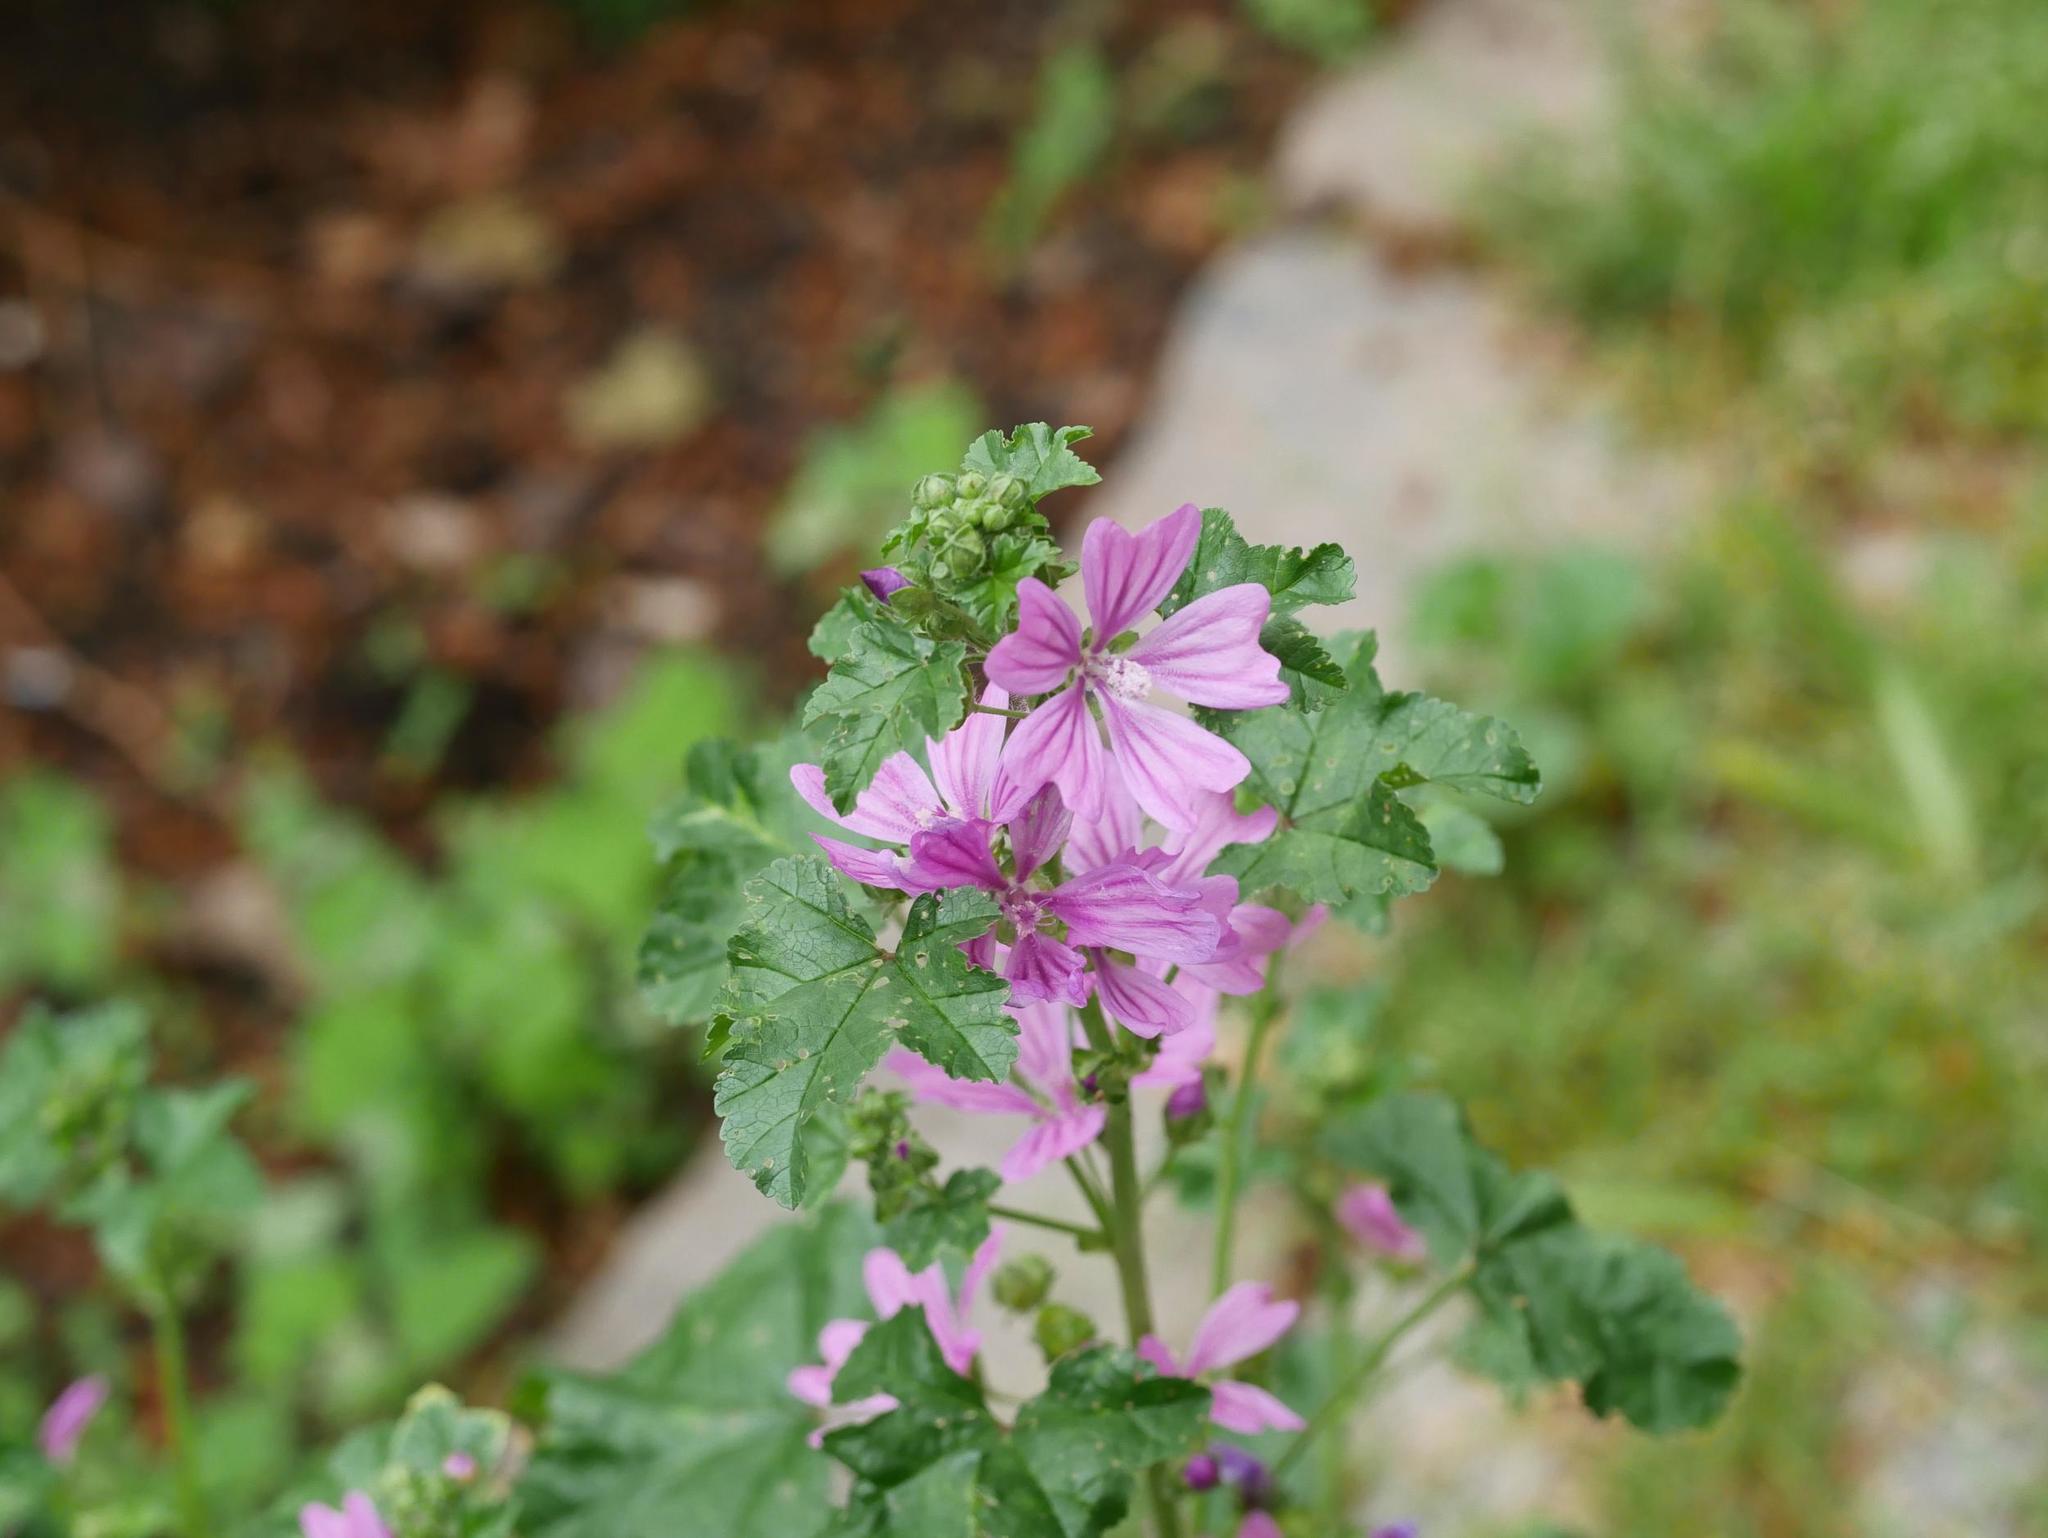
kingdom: Plantae
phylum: Tracheophyta
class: Magnoliopsida
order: Malvales
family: Malvaceae
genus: Malva
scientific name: Malva sylvestris
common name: Common mallow
